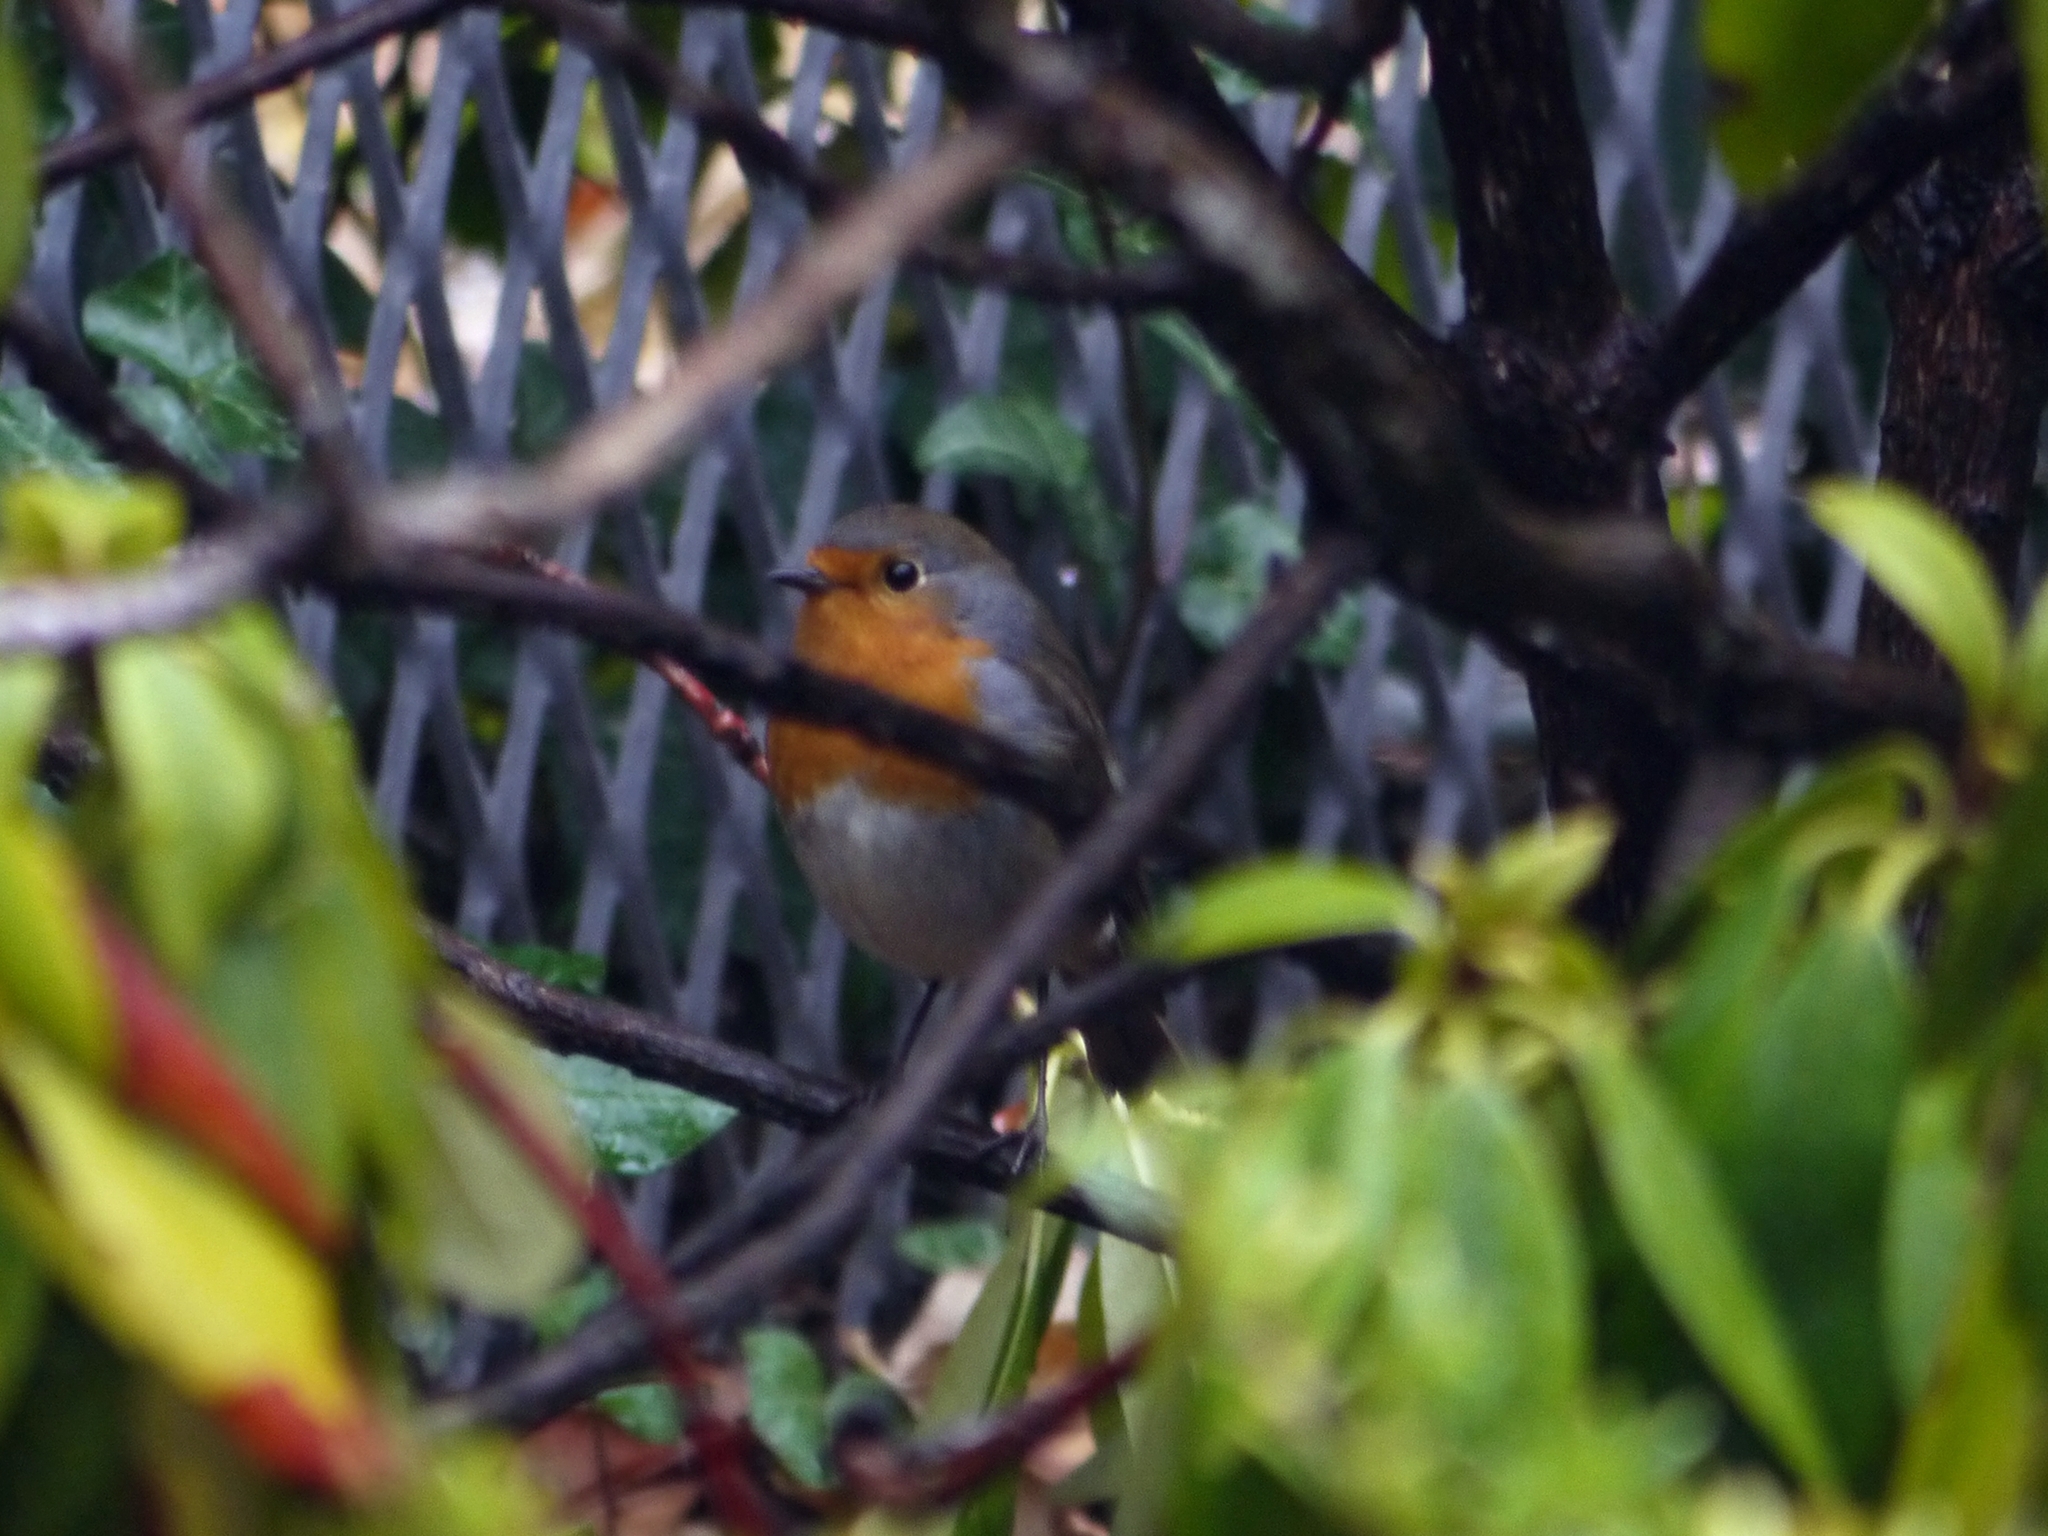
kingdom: Animalia
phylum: Chordata
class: Aves
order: Passeriformes
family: Muscicapidae
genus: Erithacus
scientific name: Erithacus rubecula
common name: European robin
